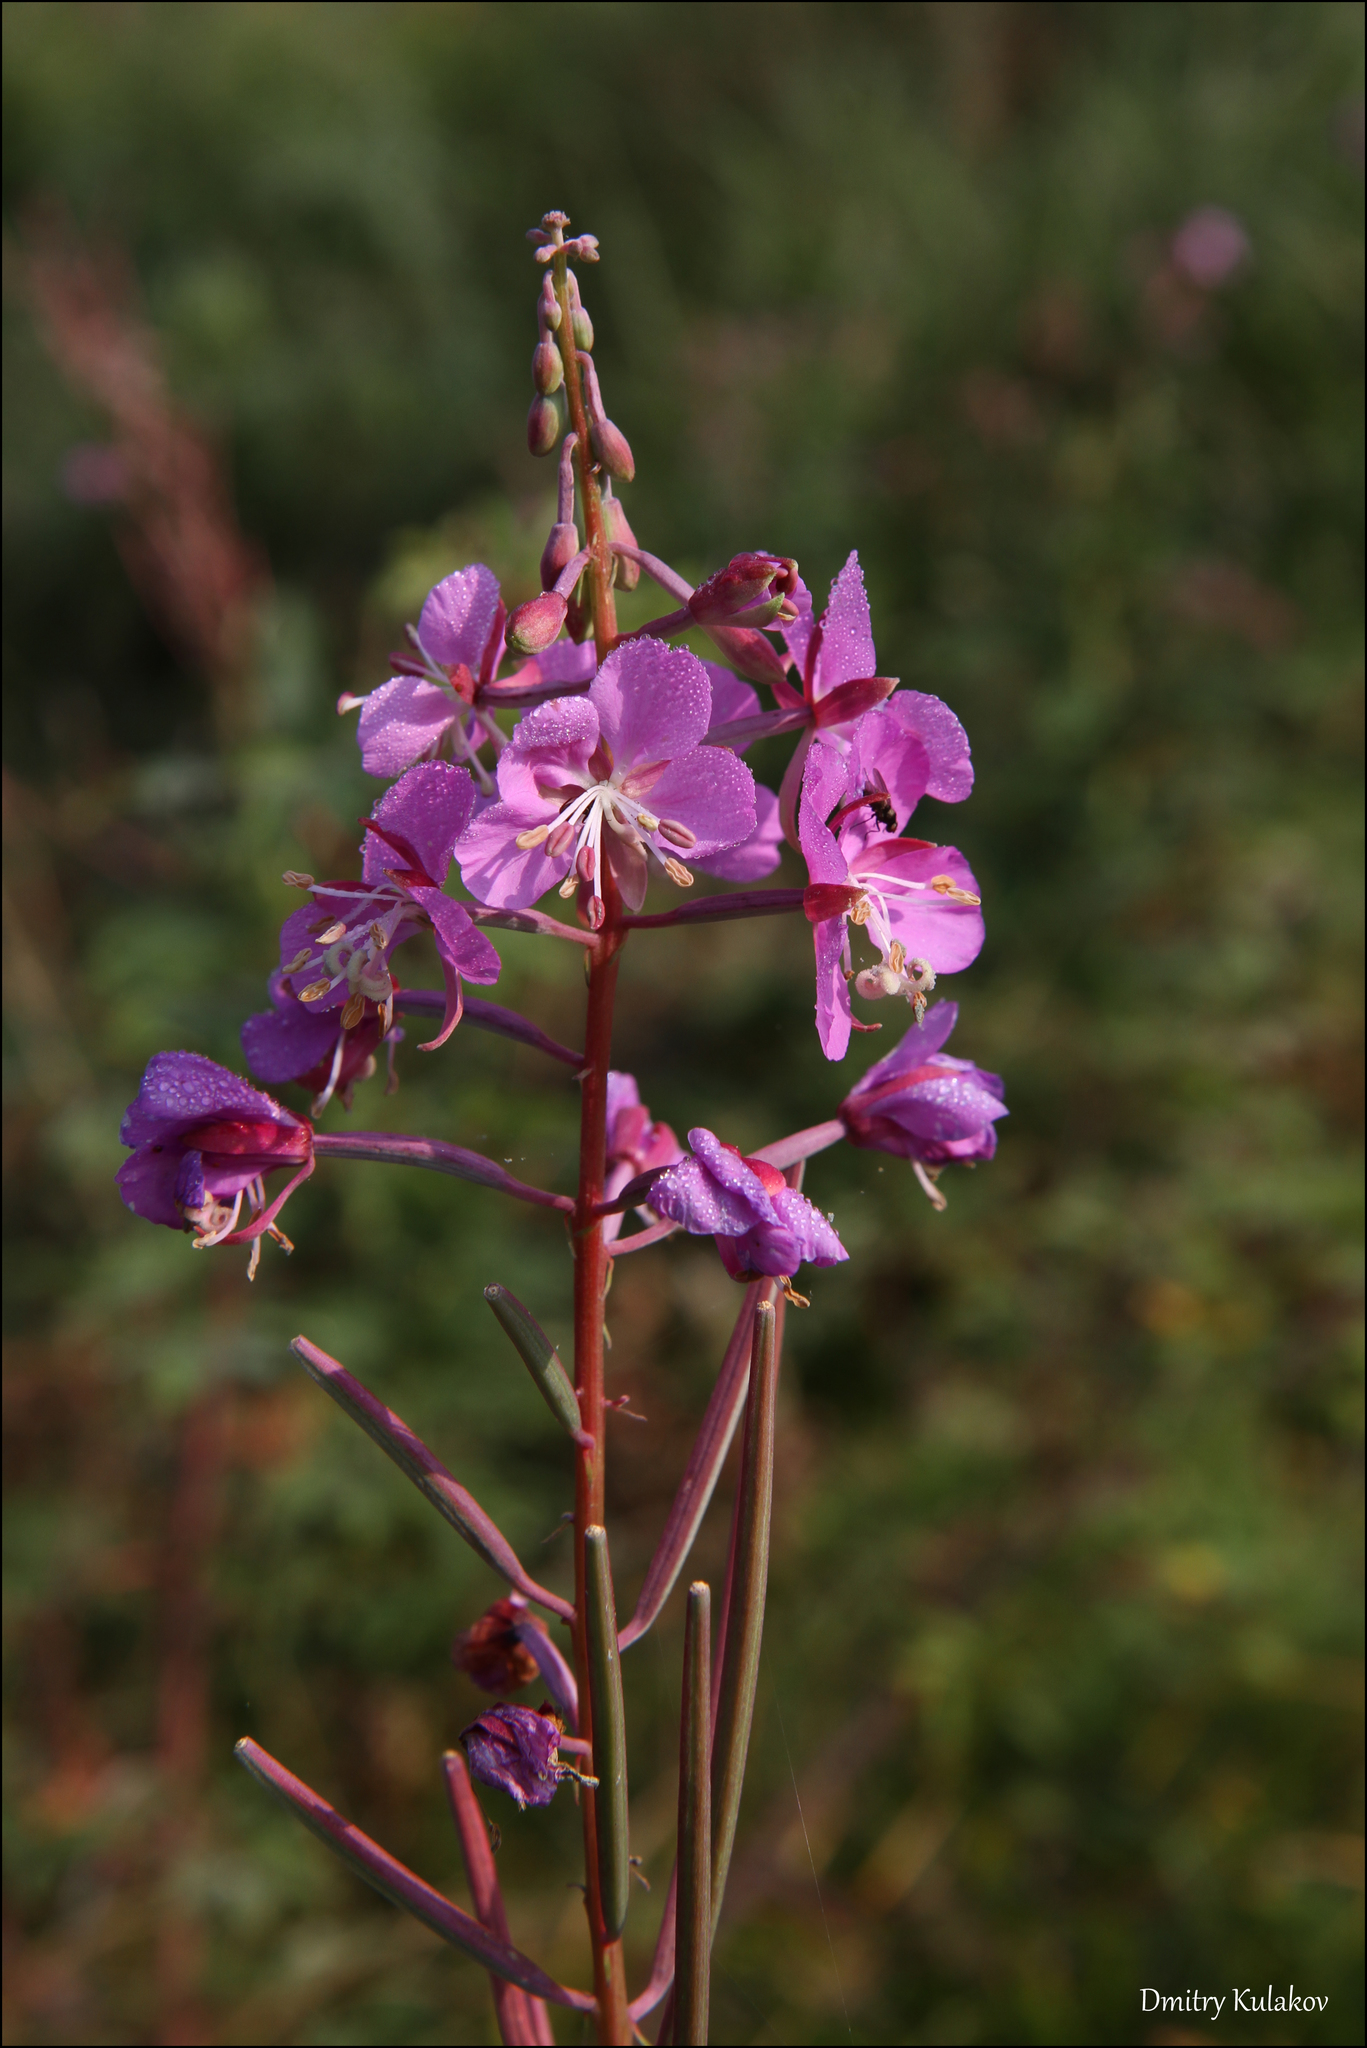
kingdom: Plantae
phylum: Tracheophyta
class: Magnoliopsida
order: Myrtales
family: Onagraceae
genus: Chamaenerion
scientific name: Chamaenerion angustifolium
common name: Fireweed
